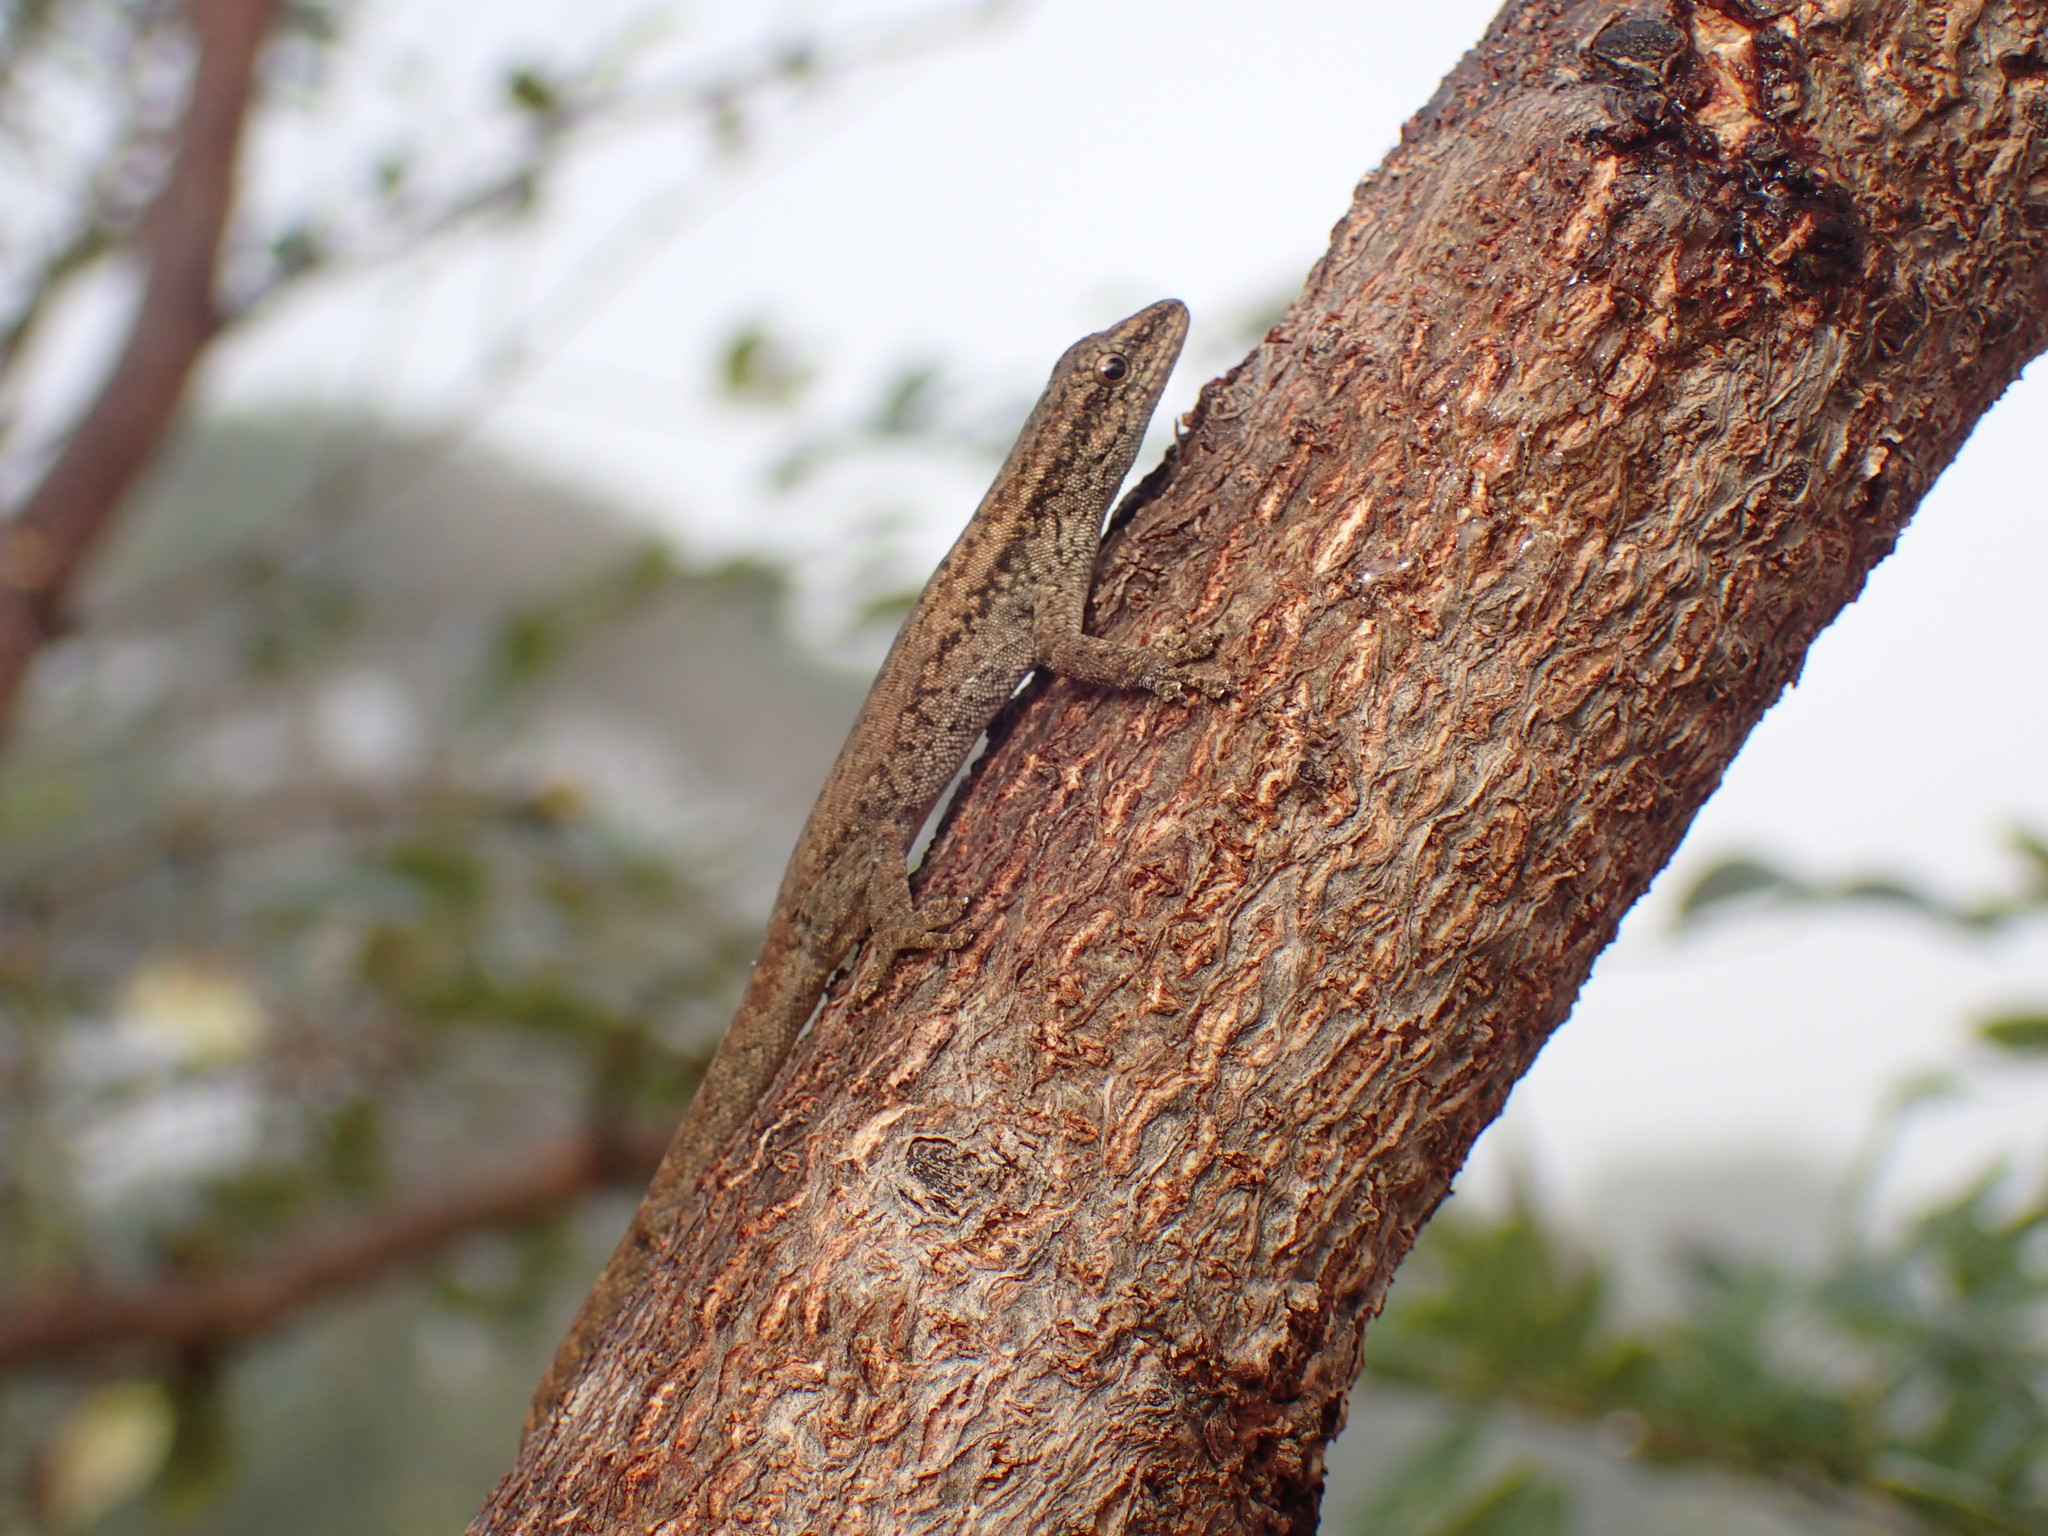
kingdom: Animalia
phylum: Chordata
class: Squamata
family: Gekkonidae
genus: Lygodactylus
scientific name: Lygodactylus capensis
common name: Cape dwarf gecko
